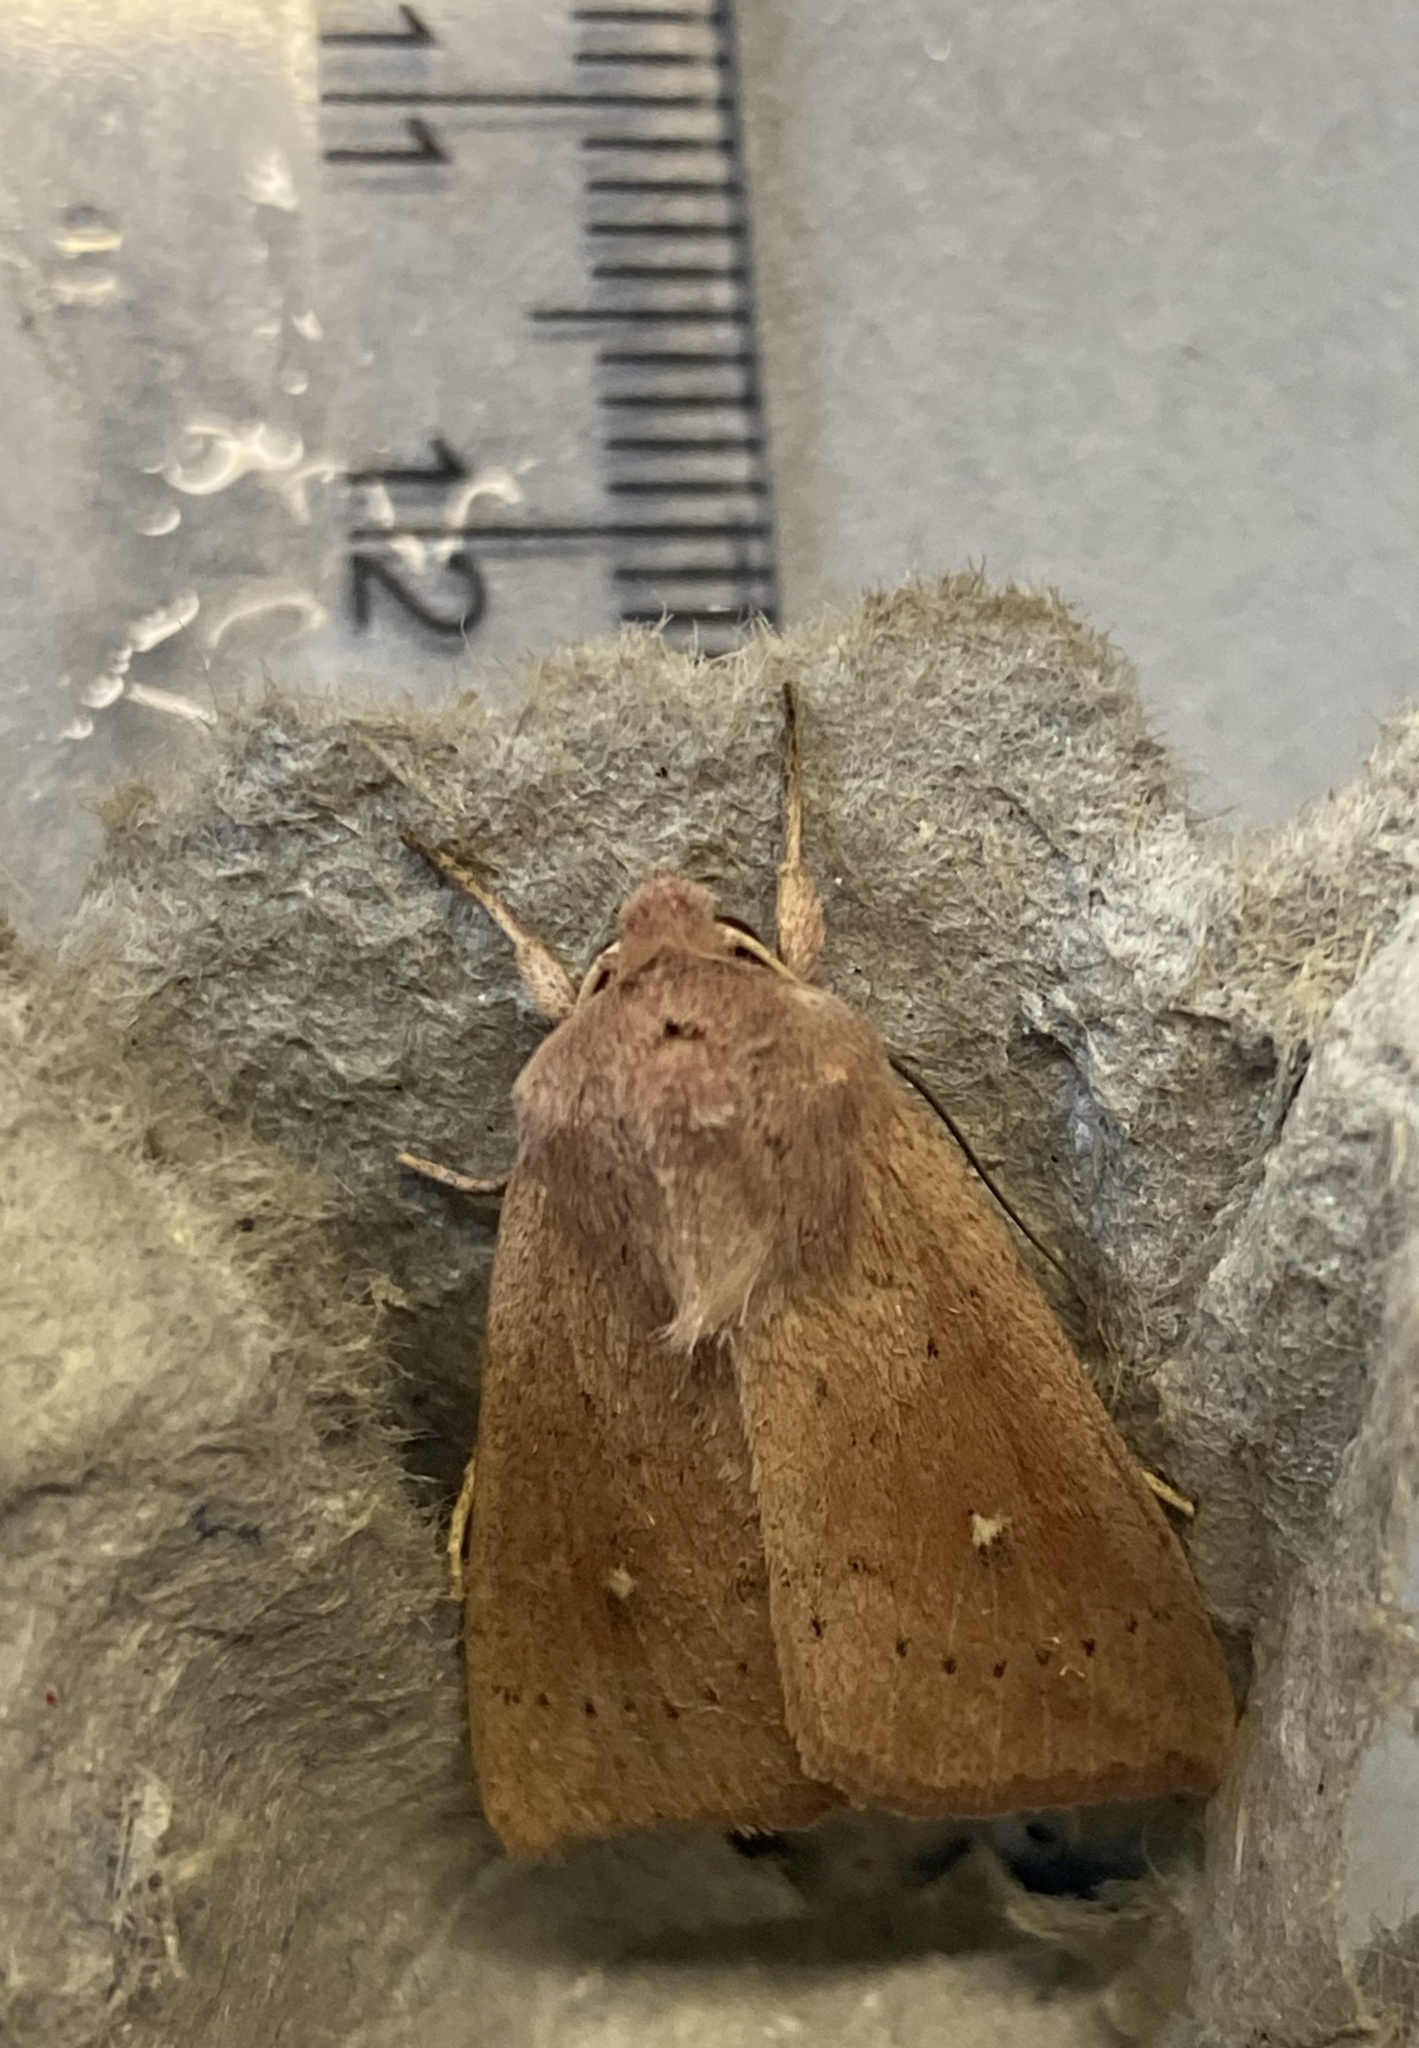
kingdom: Animalia
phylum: Arthropoda
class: Insecta
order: Lepidoptera
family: Noctuidae
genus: Mythimna
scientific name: Mythimna ferrago
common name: Clay
